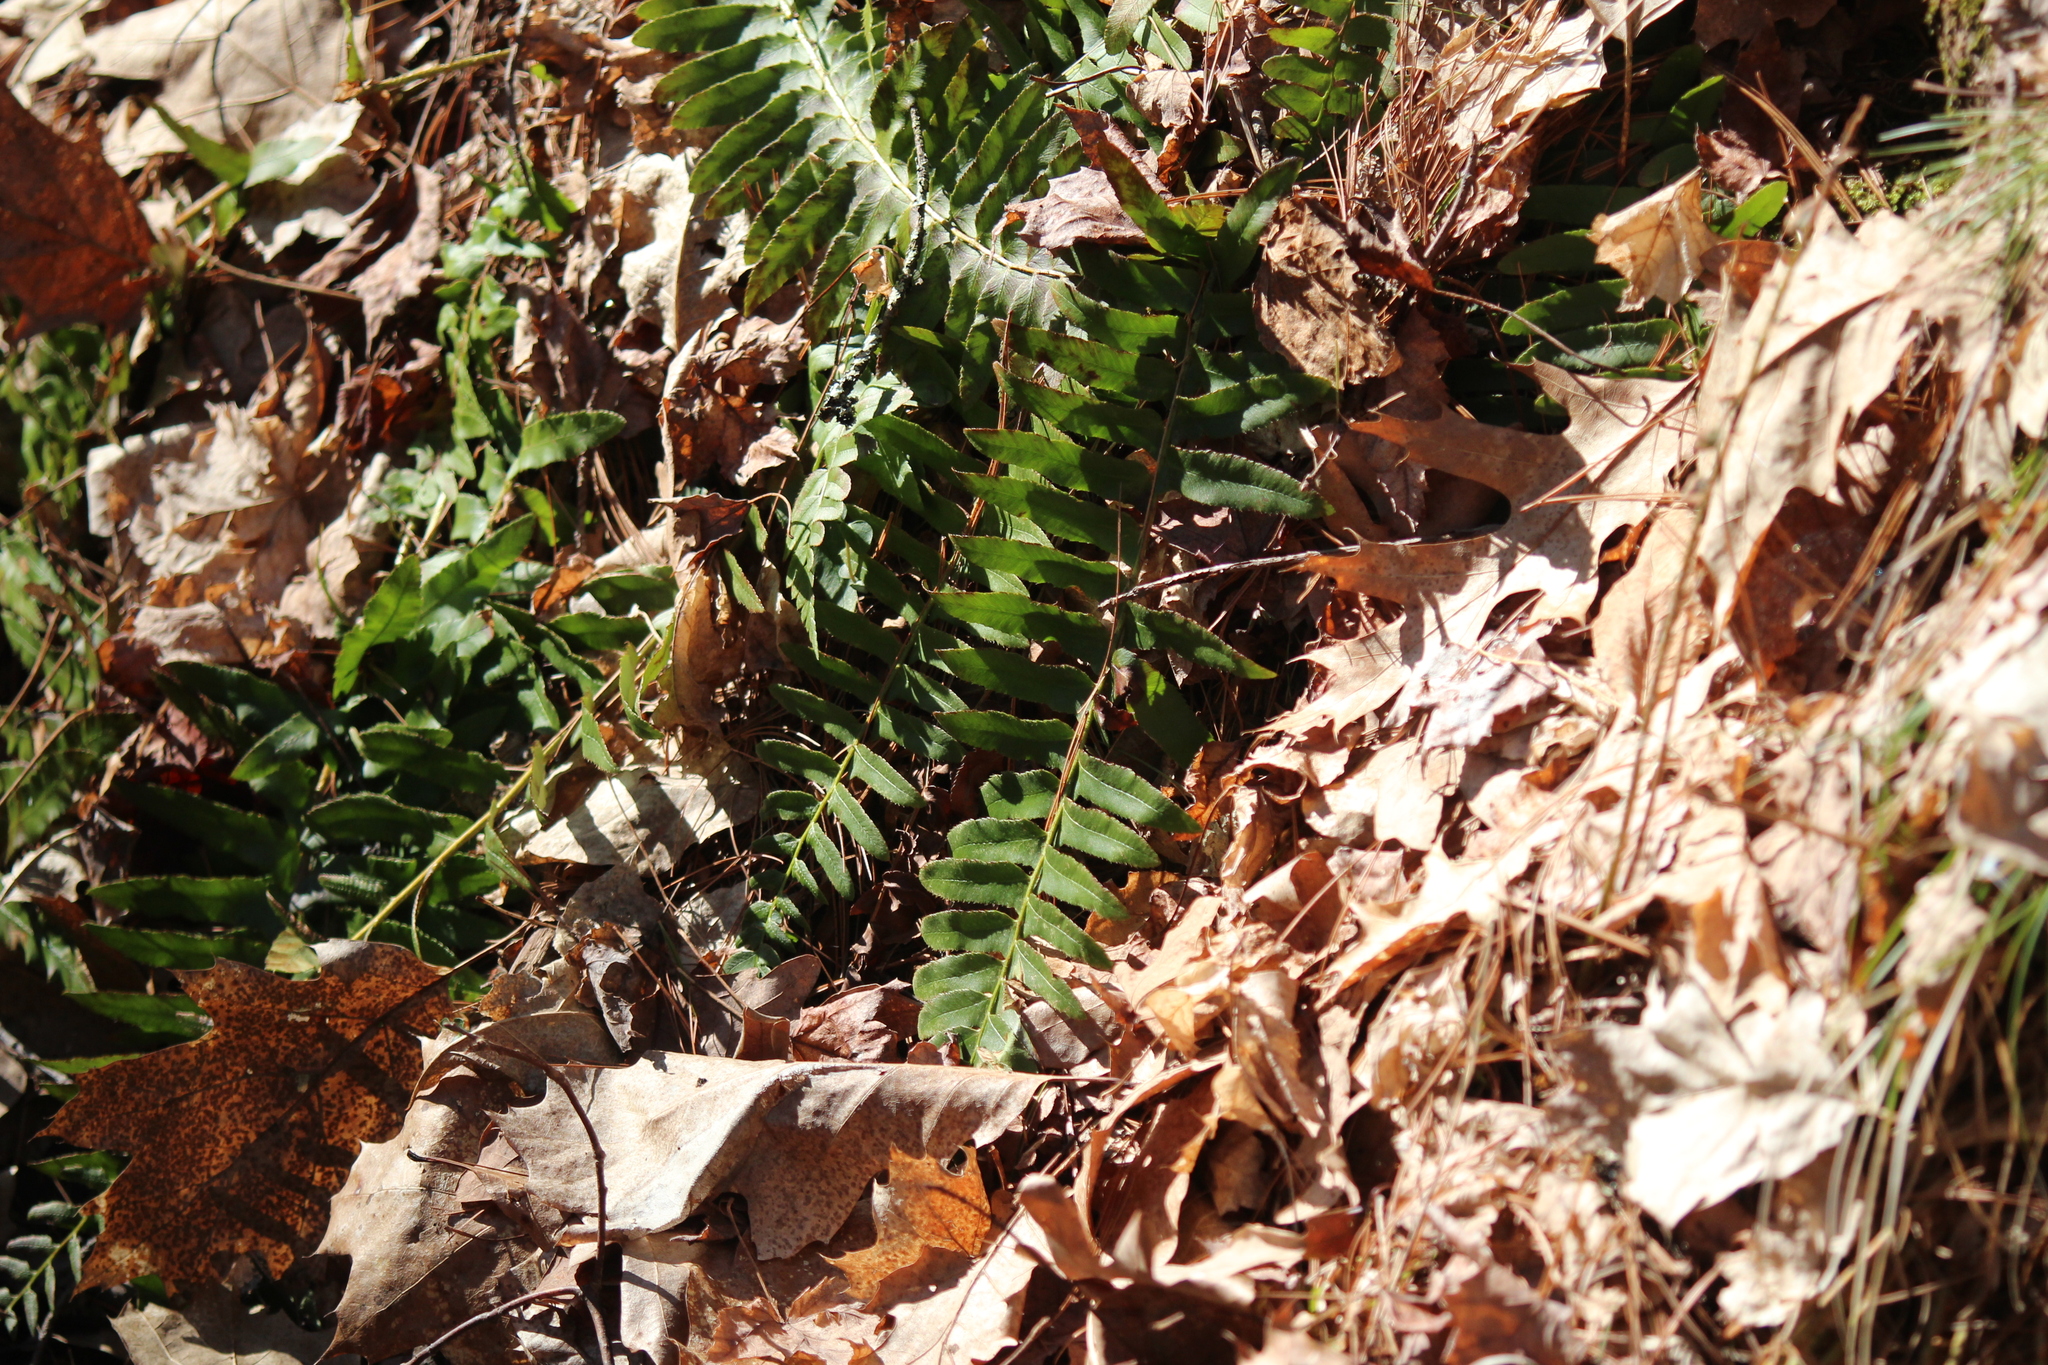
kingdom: Plantae
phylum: Tracheophyta
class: Polypodiopsida
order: Polypodiales
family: Dryopteridaceae
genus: Polystichum
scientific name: Polystichum acrostichoides
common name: Christmas fern
